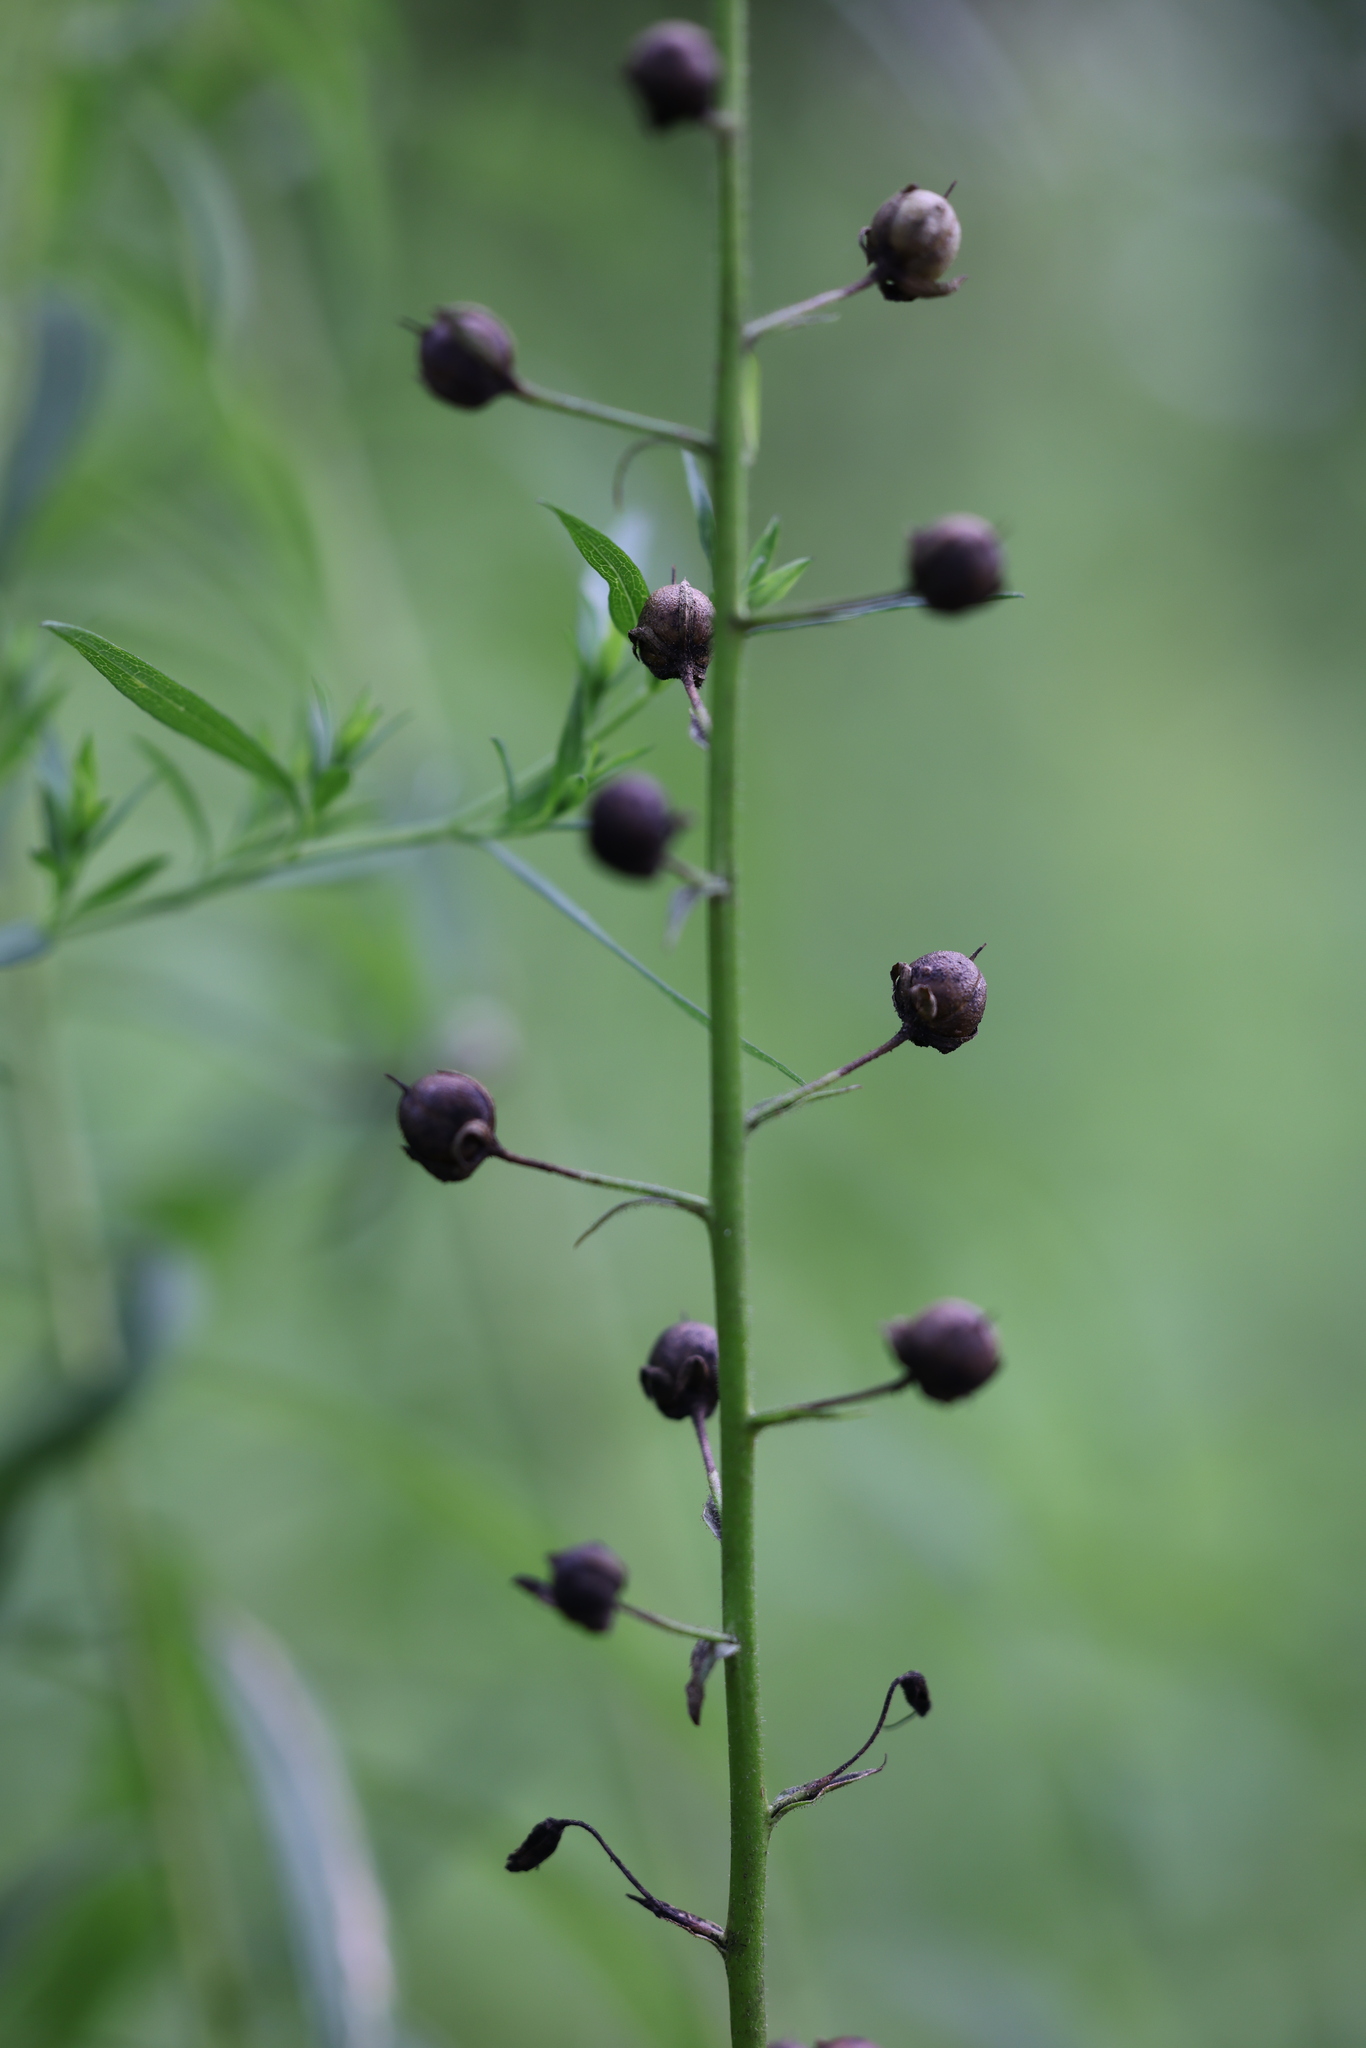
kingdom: Plantae
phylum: Tracheophyta
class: Magnoliopsida
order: Lamiales
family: Scrophulariaceae
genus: Verbascum
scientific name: Verbascum blattaria
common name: Moth mullein
